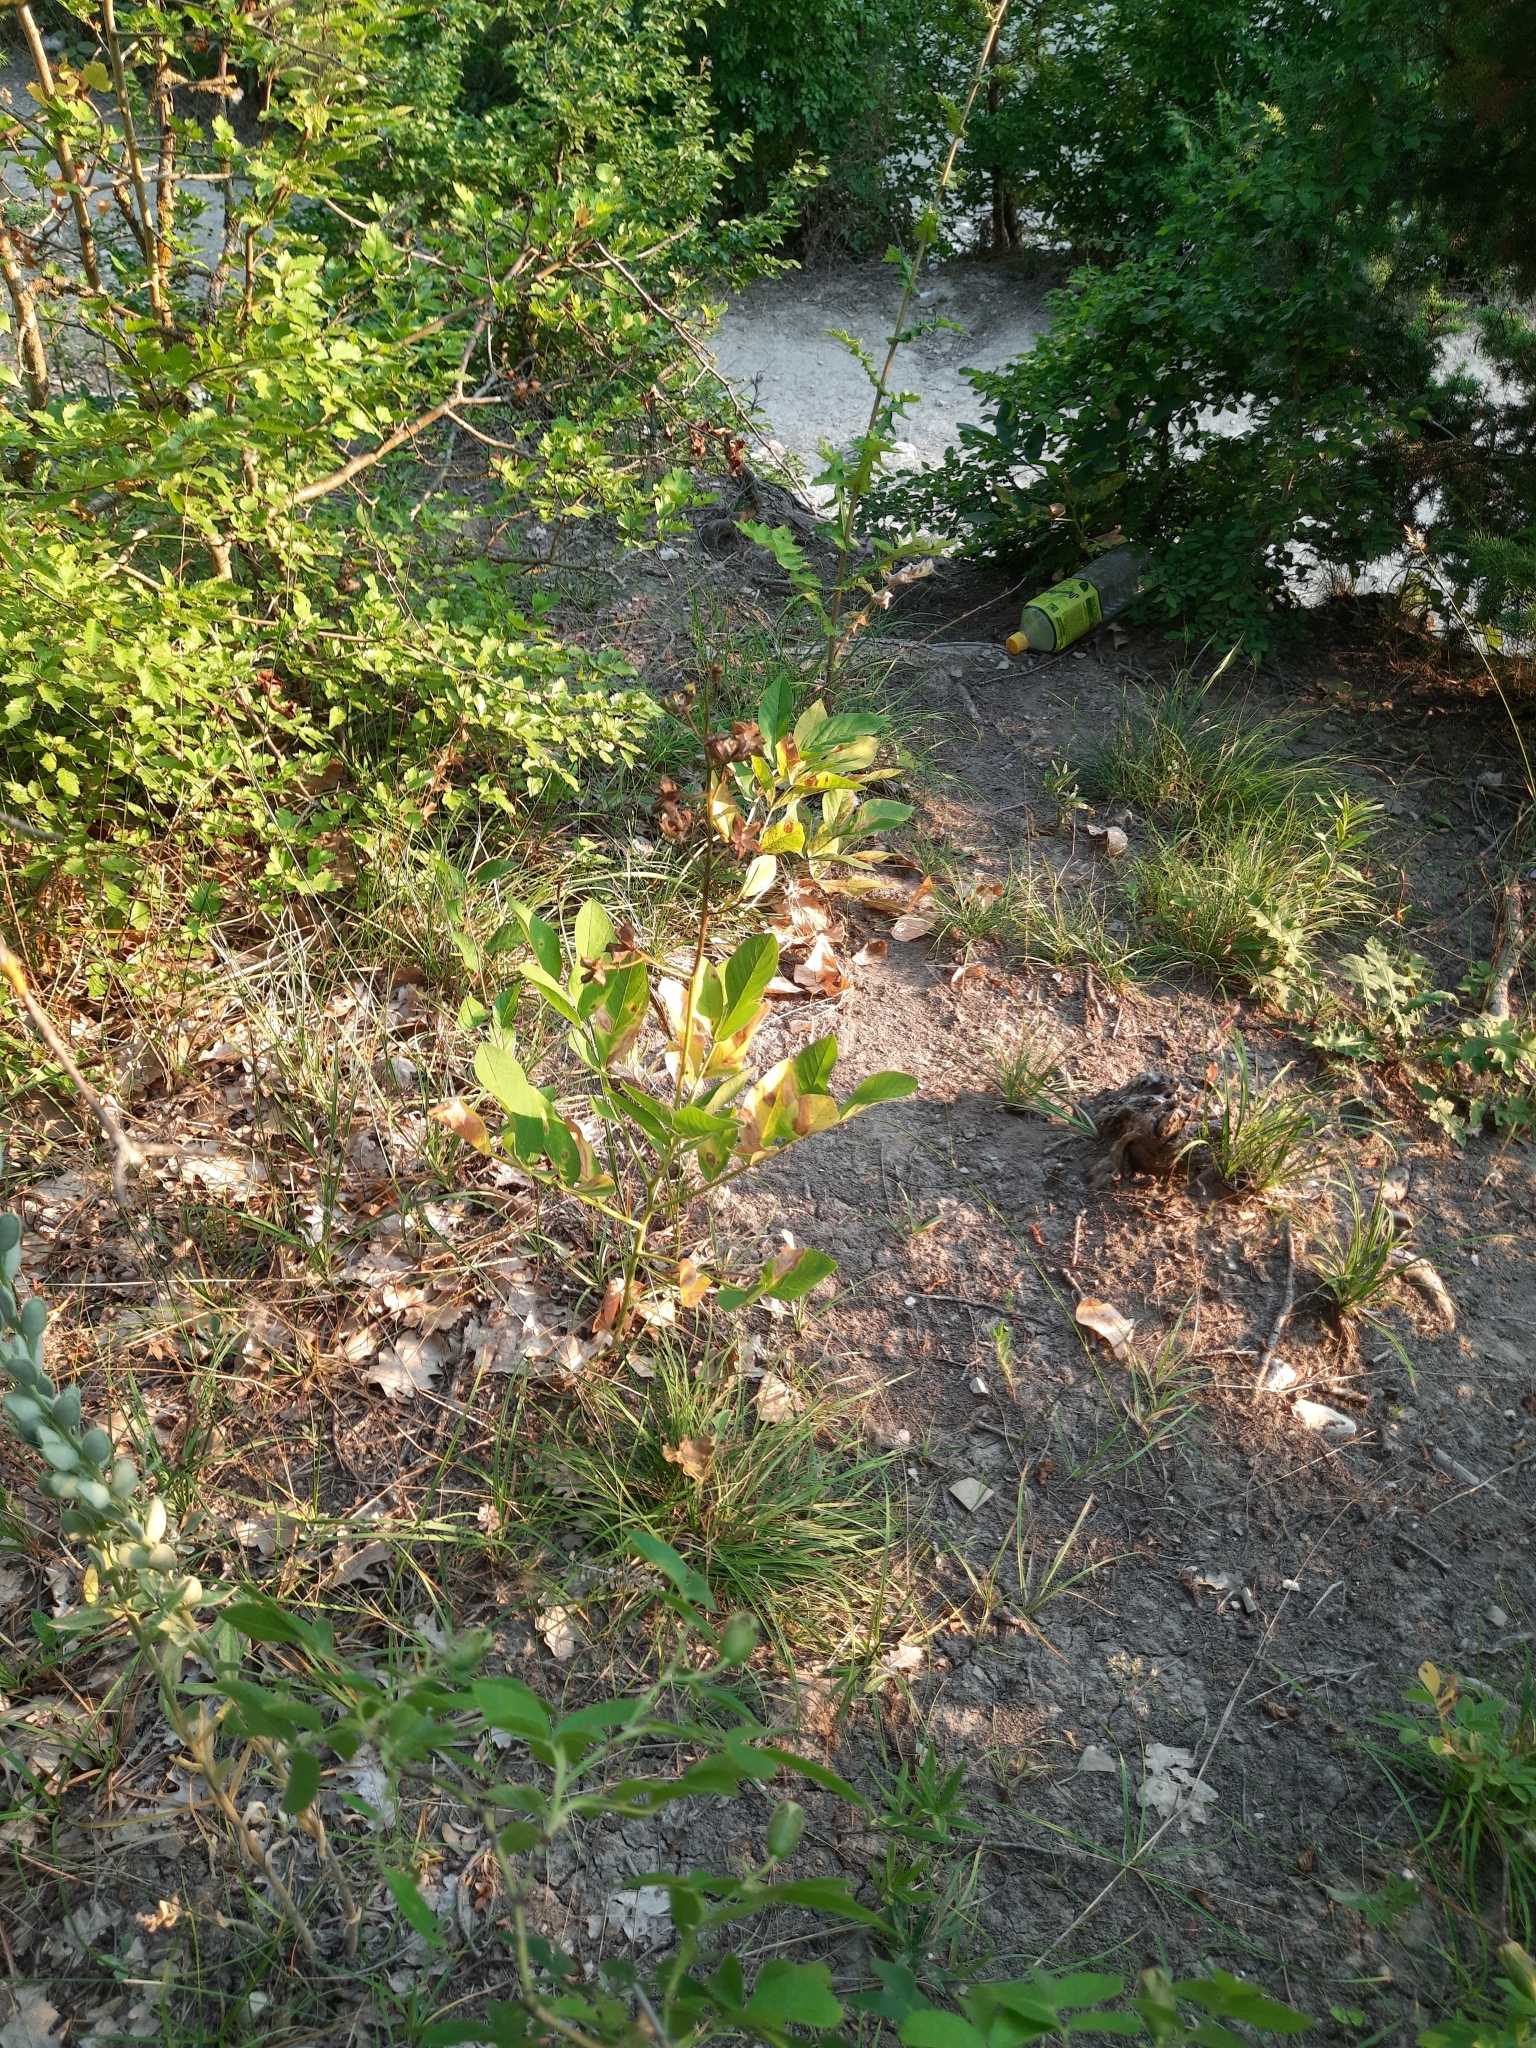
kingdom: Plantae
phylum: Tracheophyta
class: Magnoliopsida
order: Sapindales
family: Rutaceae
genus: Dictamnus
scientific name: Dictamnus albus
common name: Gasplant
